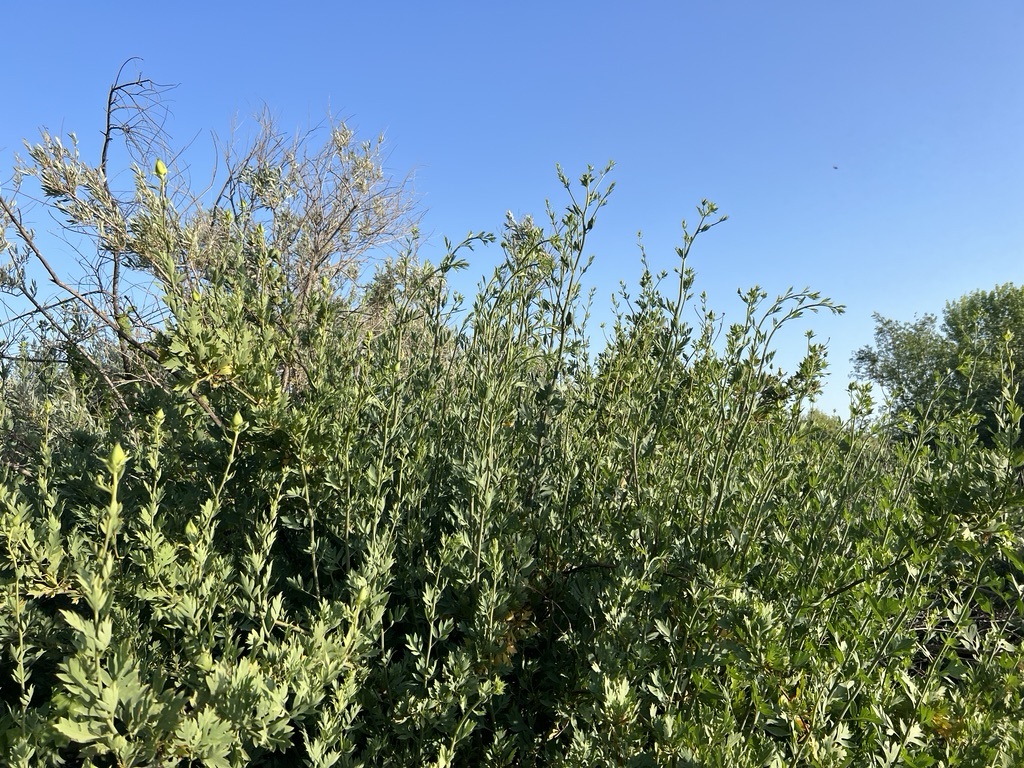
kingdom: Plantae
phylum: Tracheophyta
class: Magnoliopsida
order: Ranunculales
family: Papaveraceae
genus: Romneya
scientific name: Romneya coulteri
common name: California tree-poppy
